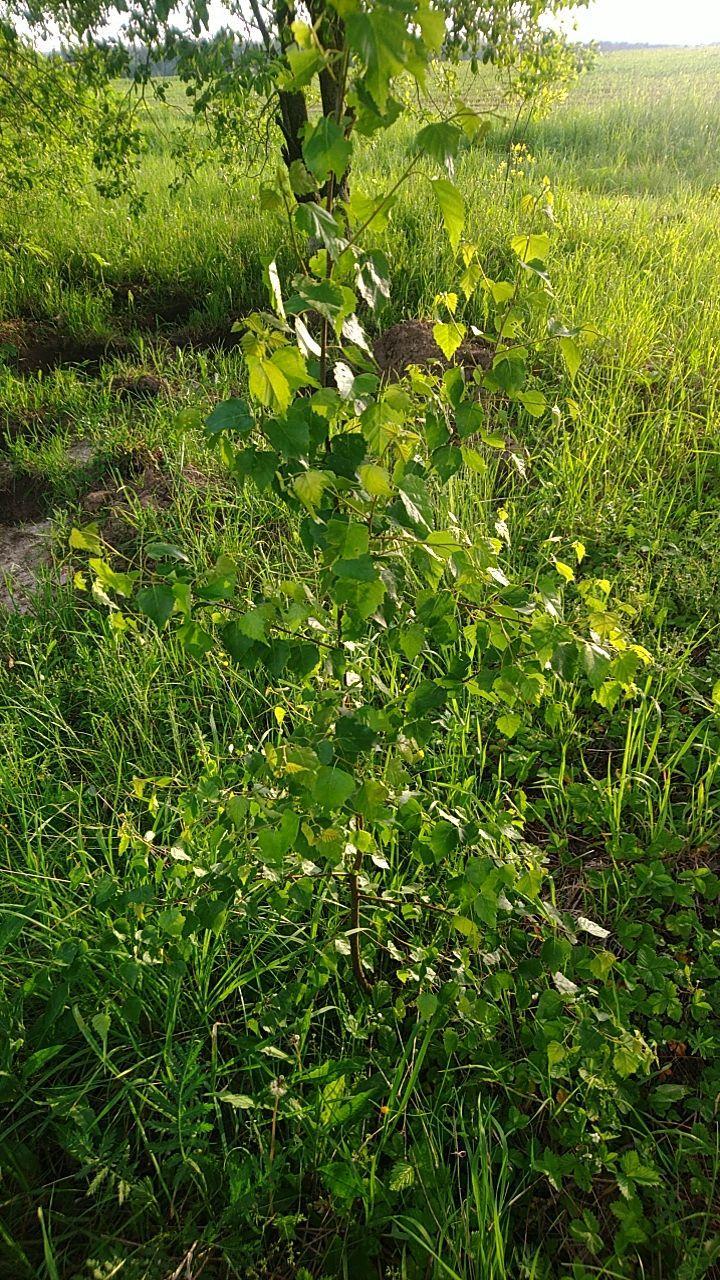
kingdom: Plantae
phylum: Tracheophyta
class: Magnoliopsida
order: Fagales
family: Betulaceae
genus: Betula
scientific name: Betula pendula
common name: Silver birch
